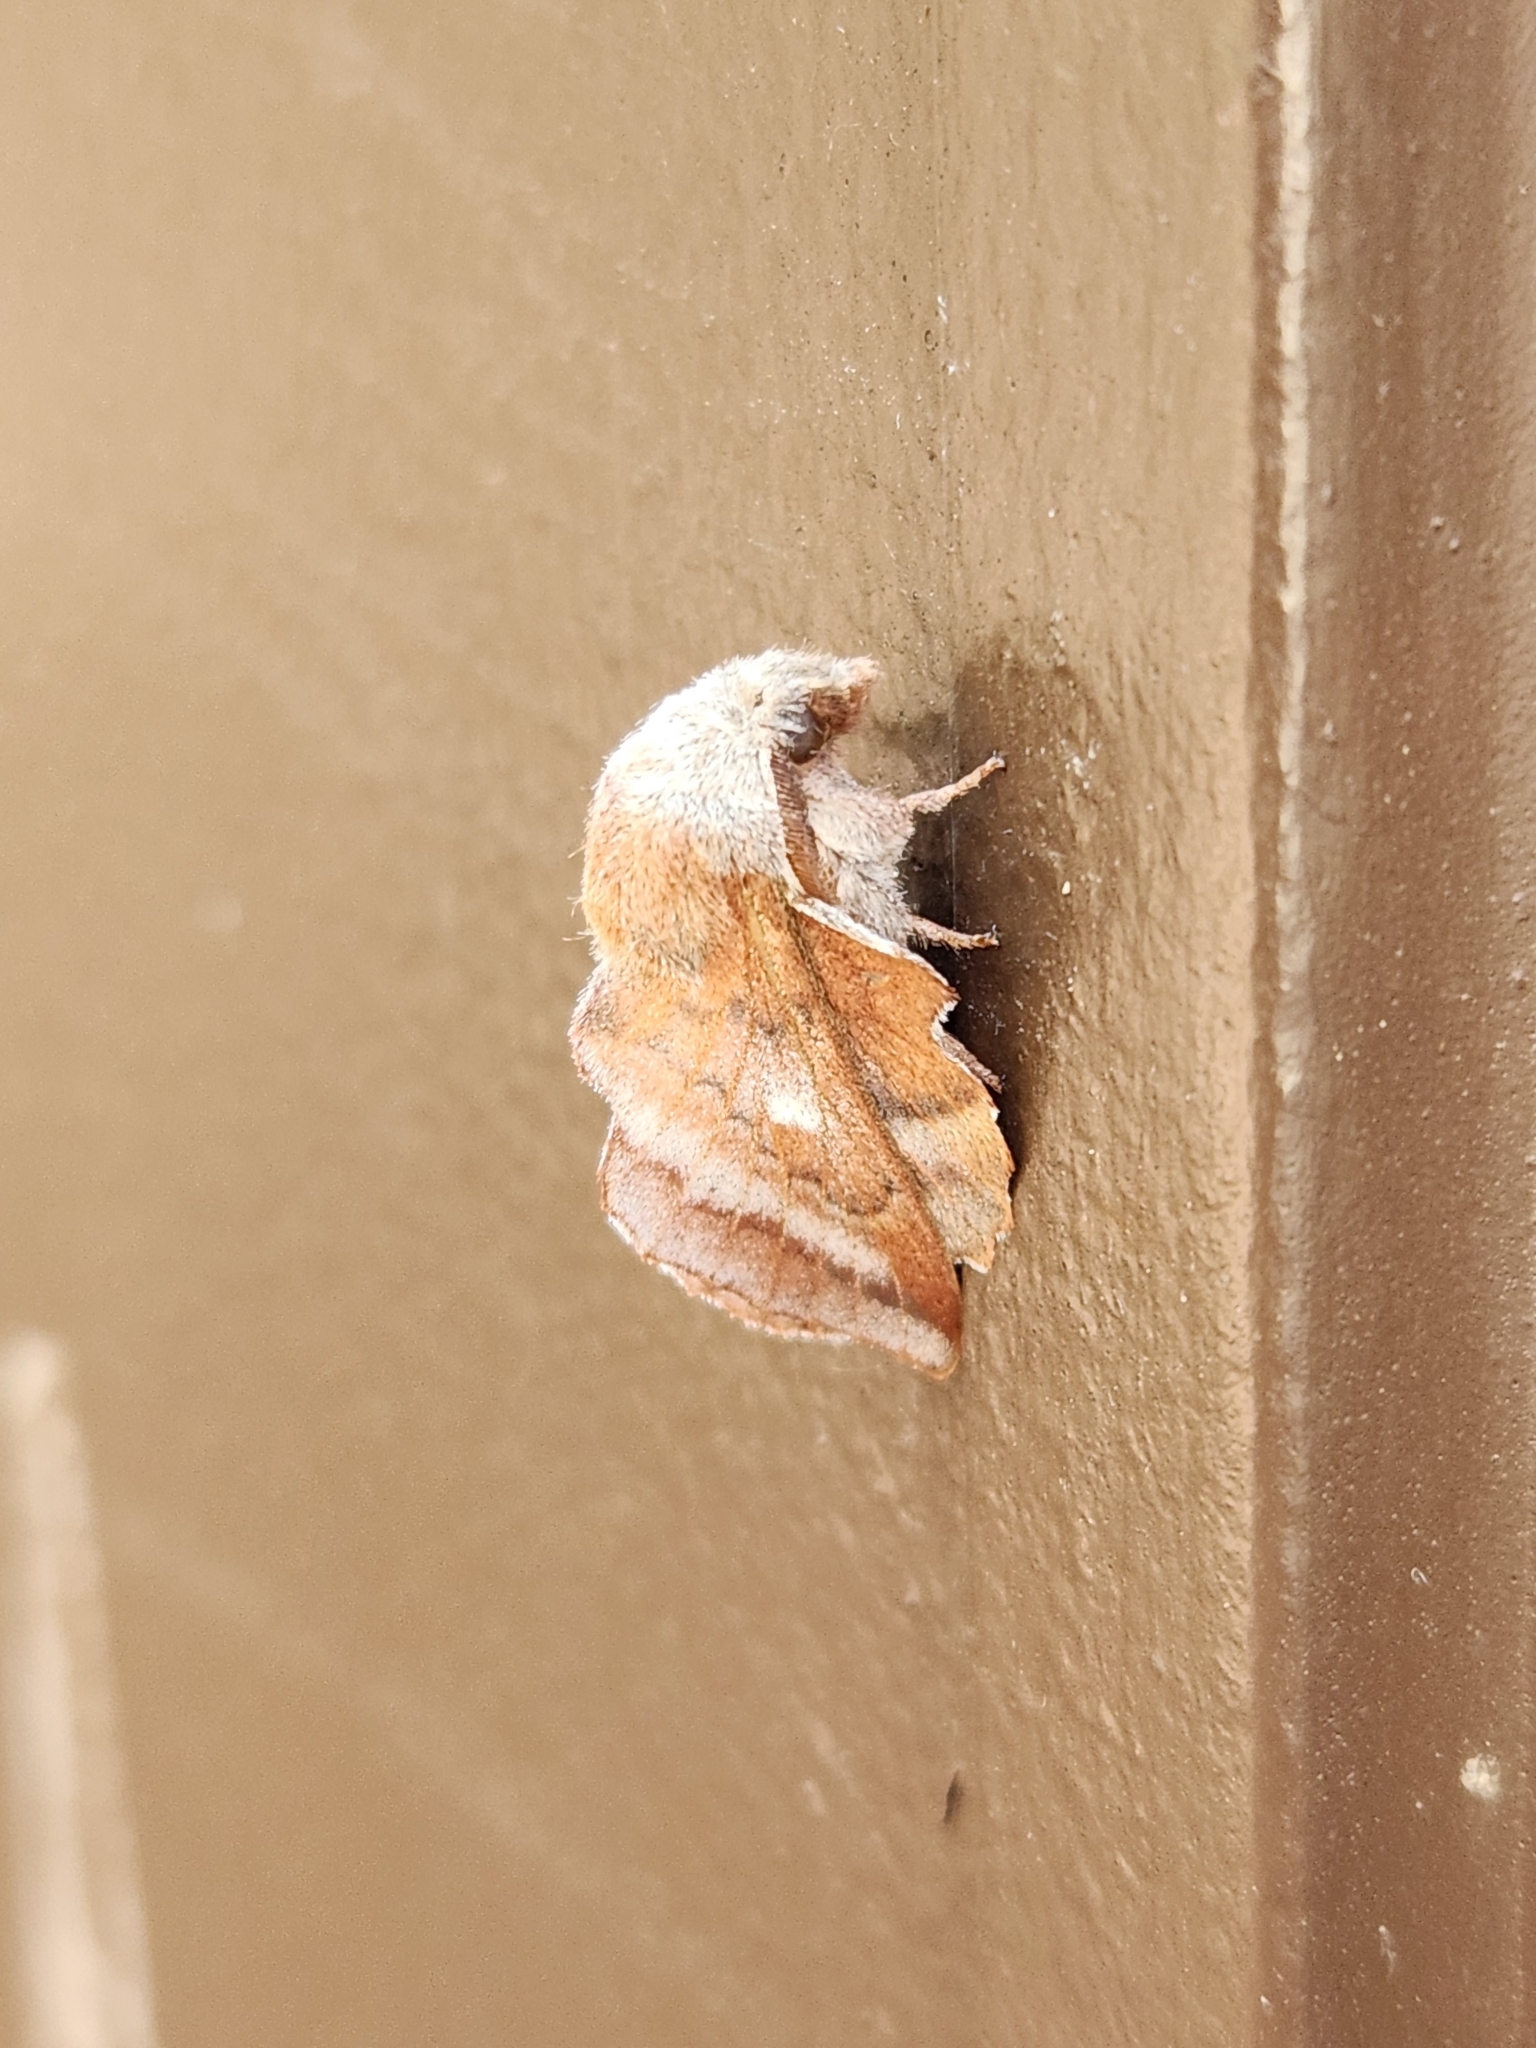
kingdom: Animalia
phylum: Arthropoda
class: Insecta
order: Lepidoptera
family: Lasiocampidae
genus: Phyllodesma
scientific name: Phyllodesma americana
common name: American lappet moth
